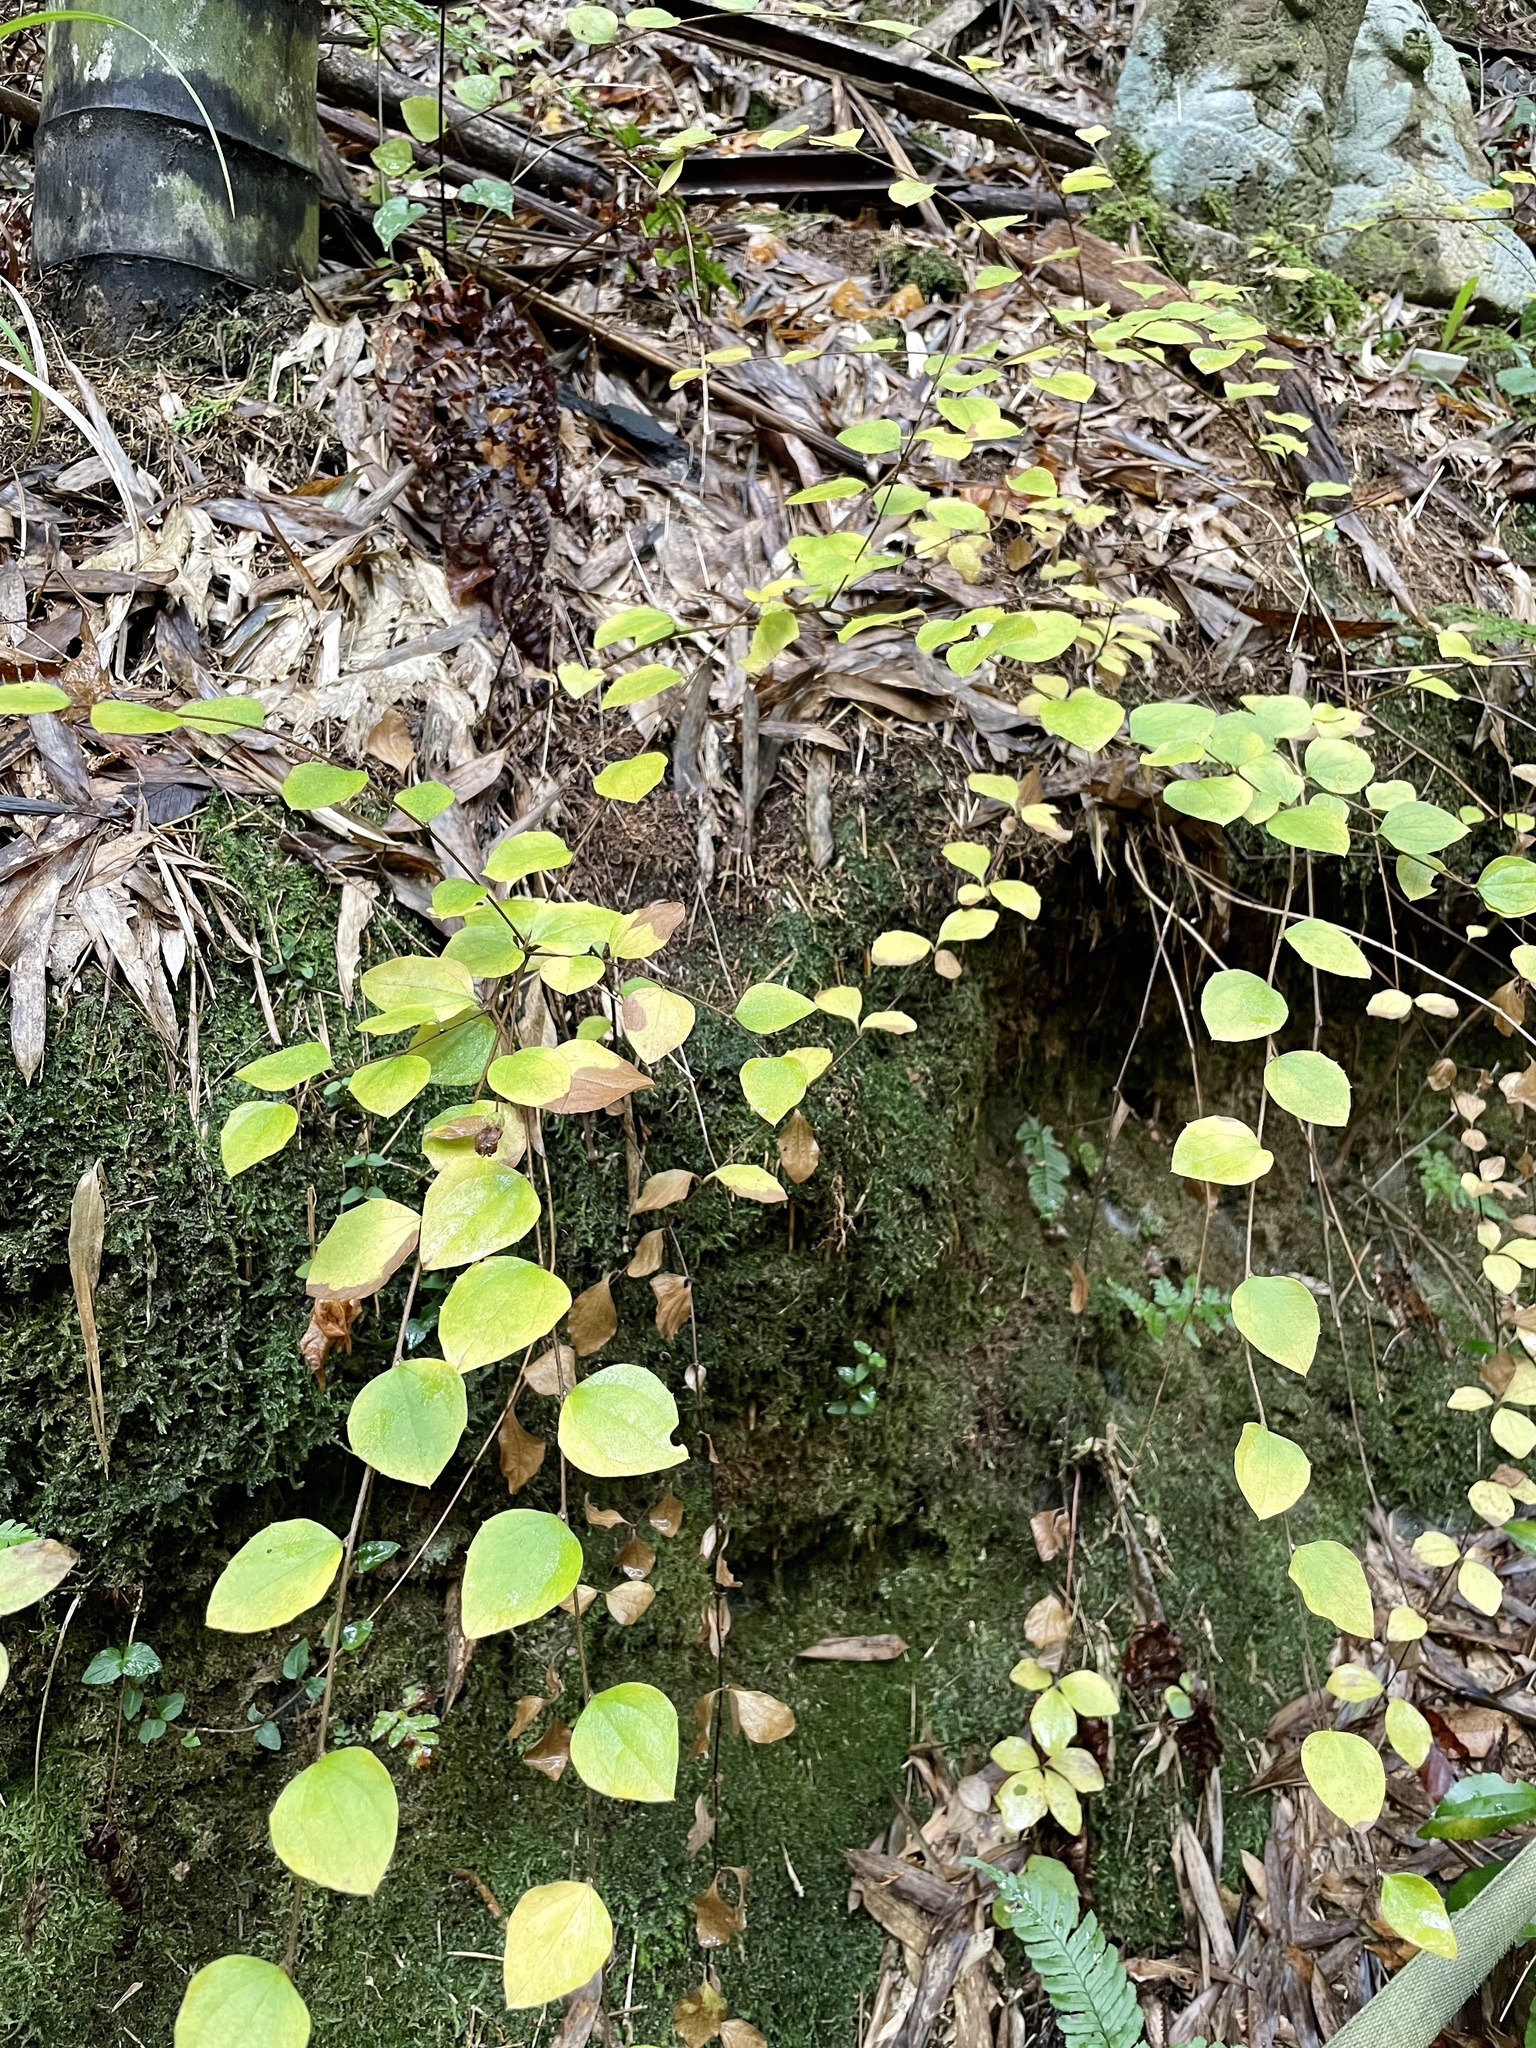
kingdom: Plantae
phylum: Tracheophyta
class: Magnoliopsida
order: Asterales
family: Asteraceae
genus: Pertya
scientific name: Pertya scandens
